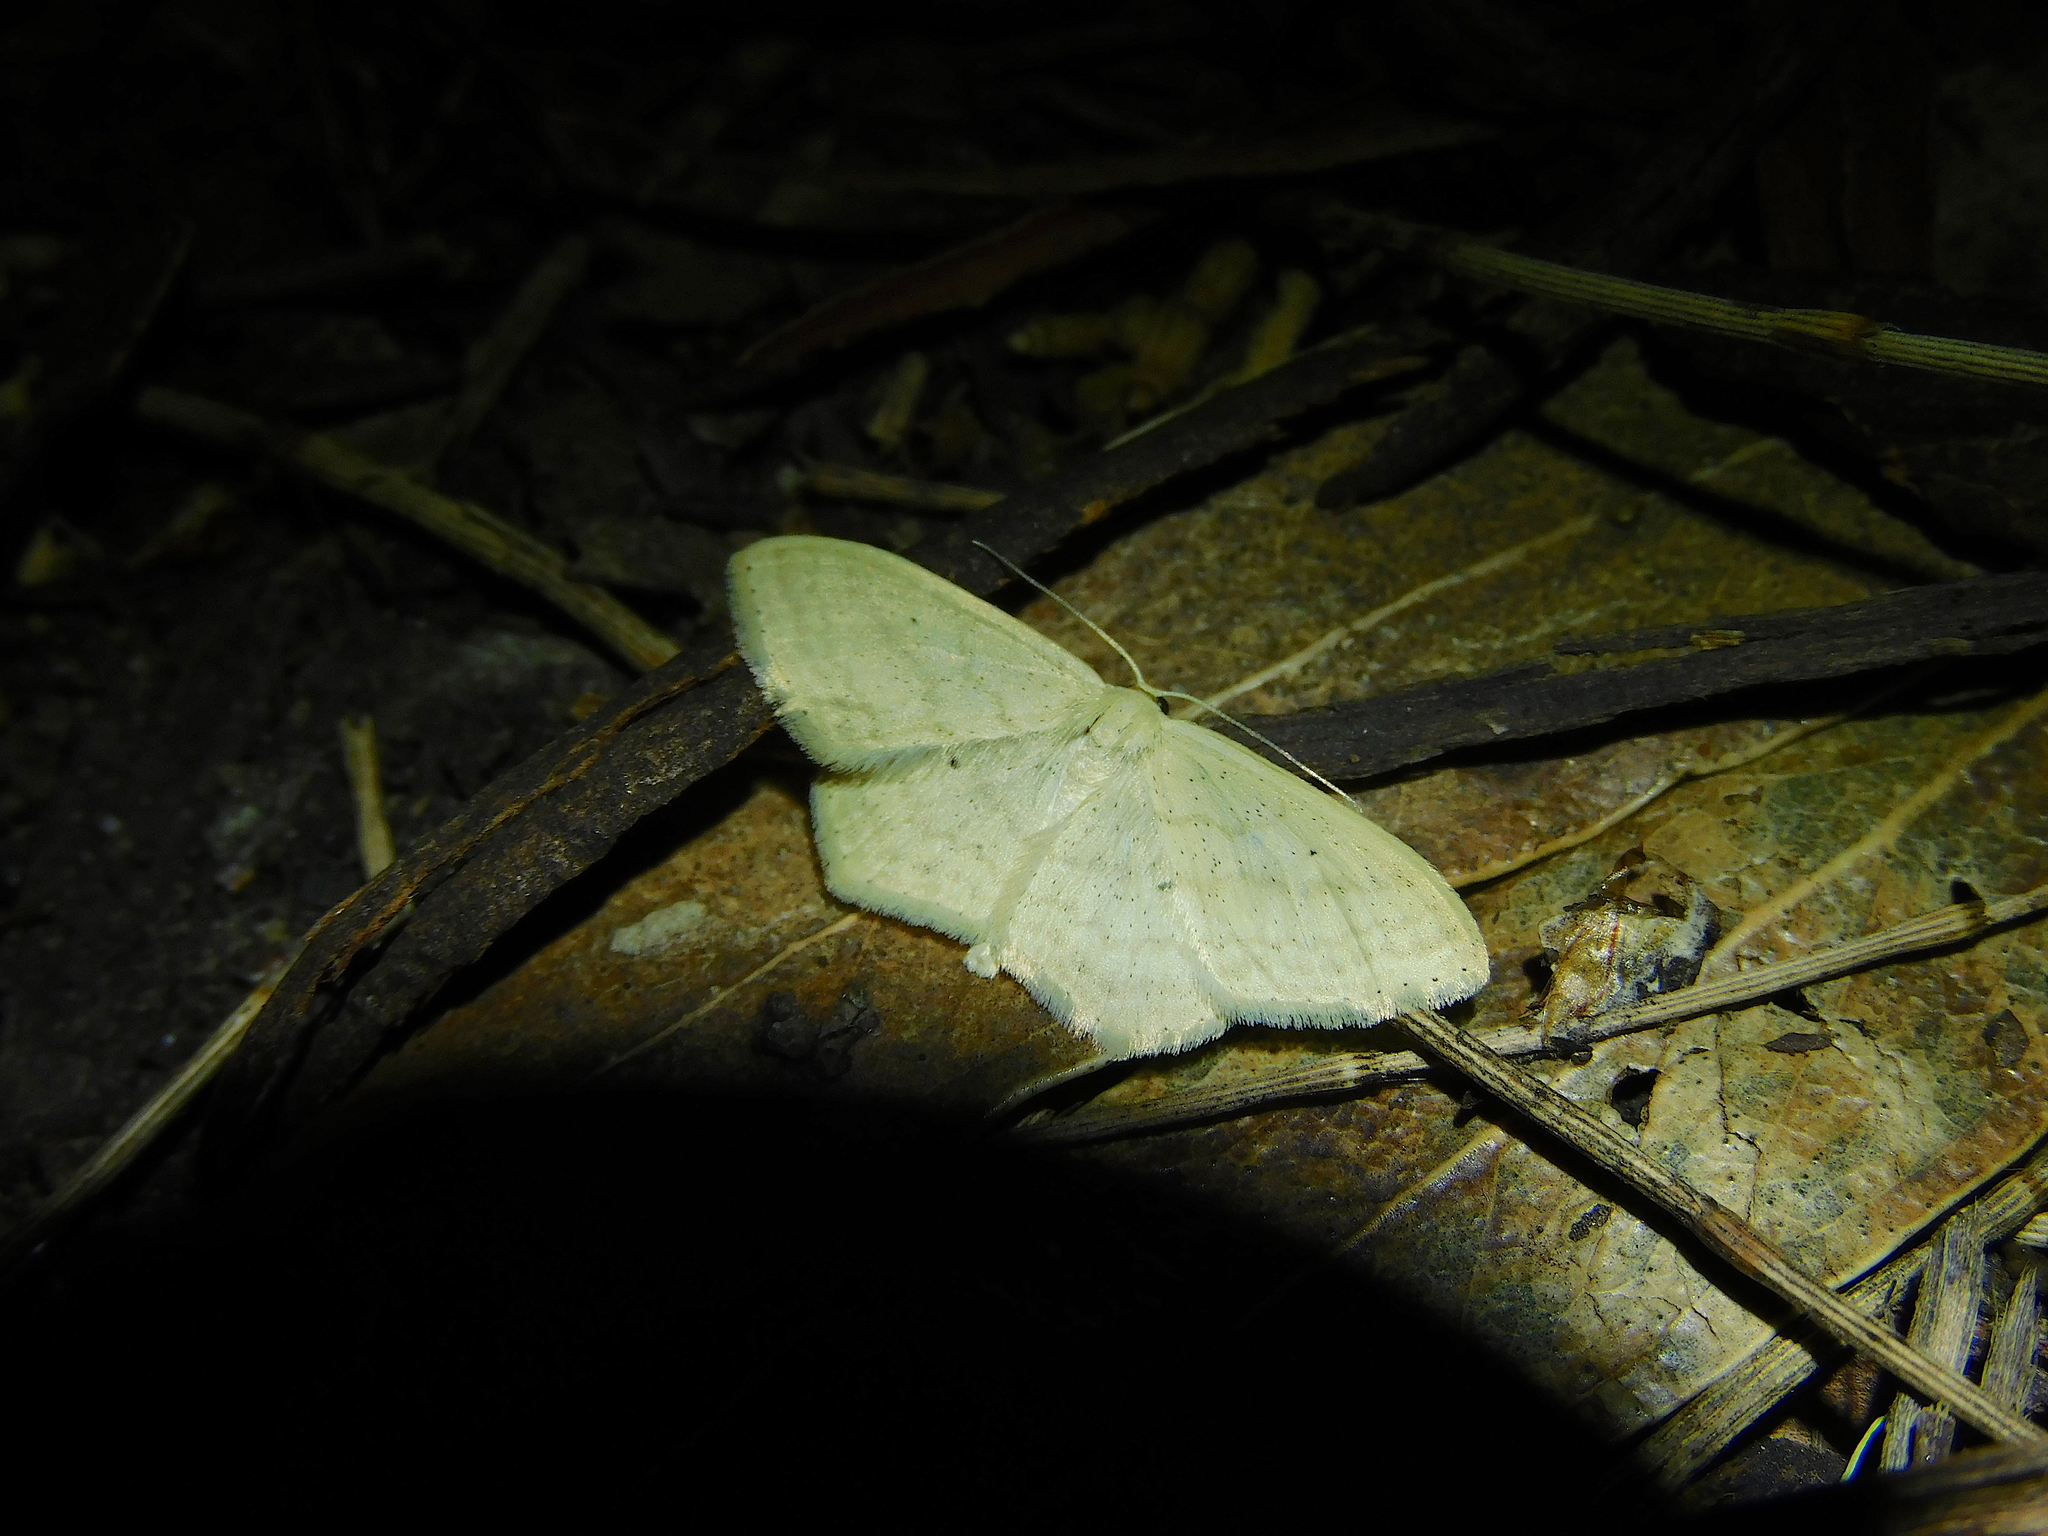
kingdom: Animalia
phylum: Arthropoda
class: Insecta
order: Lepidoptera
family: Geometridae
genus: Scopula
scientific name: Scopula perlata
